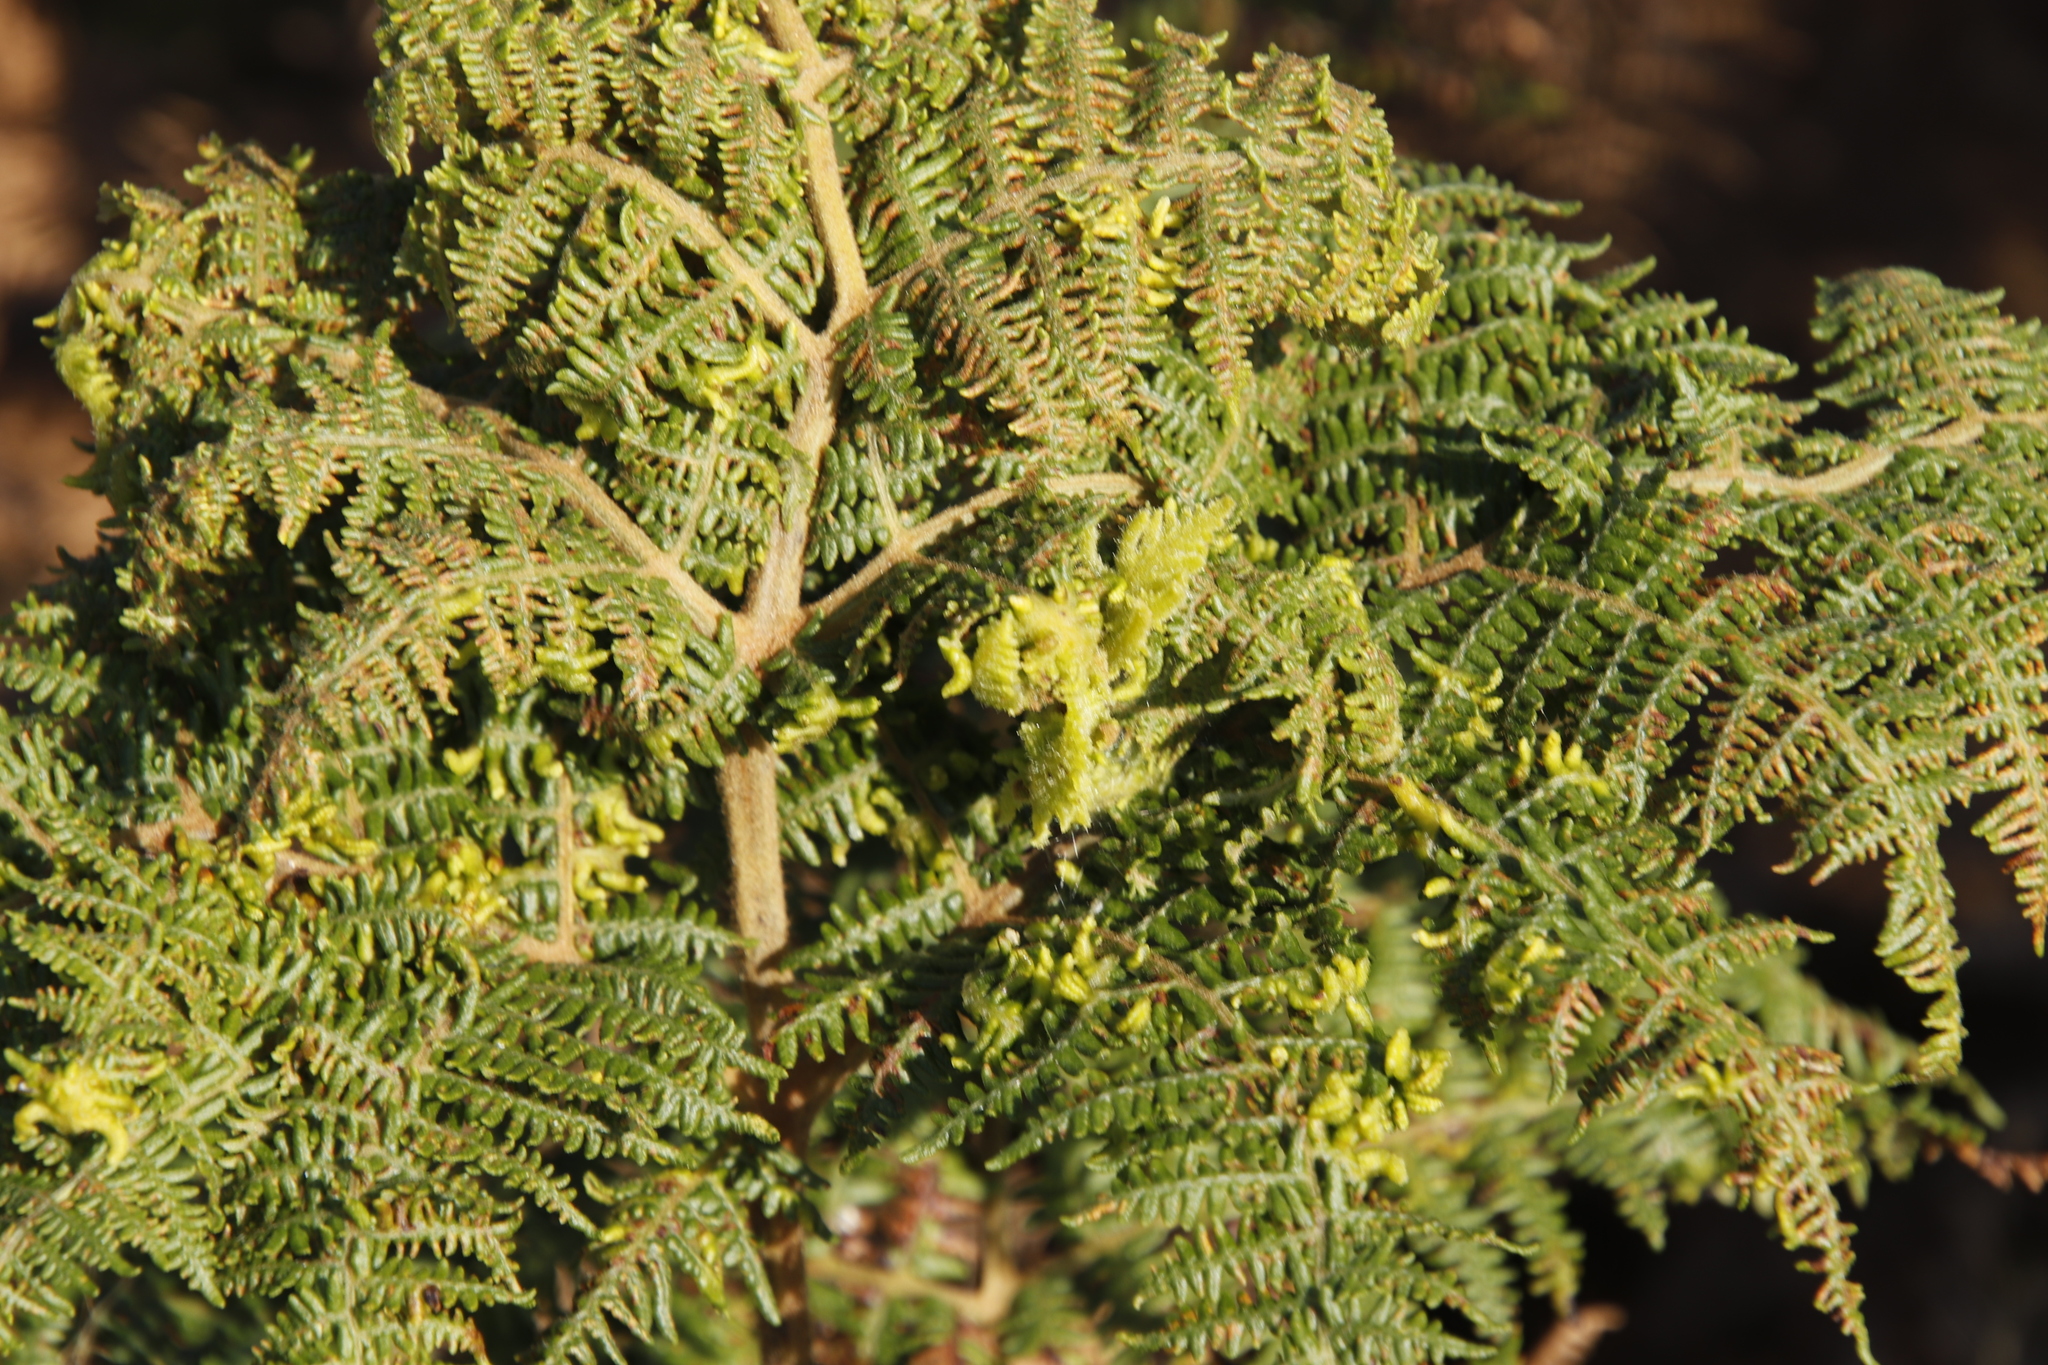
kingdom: Animalia
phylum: Arthropoda
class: Arachnida
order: Trombidiformes
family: Eriophyidae
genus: Eriophyes
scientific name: Eriophyes
